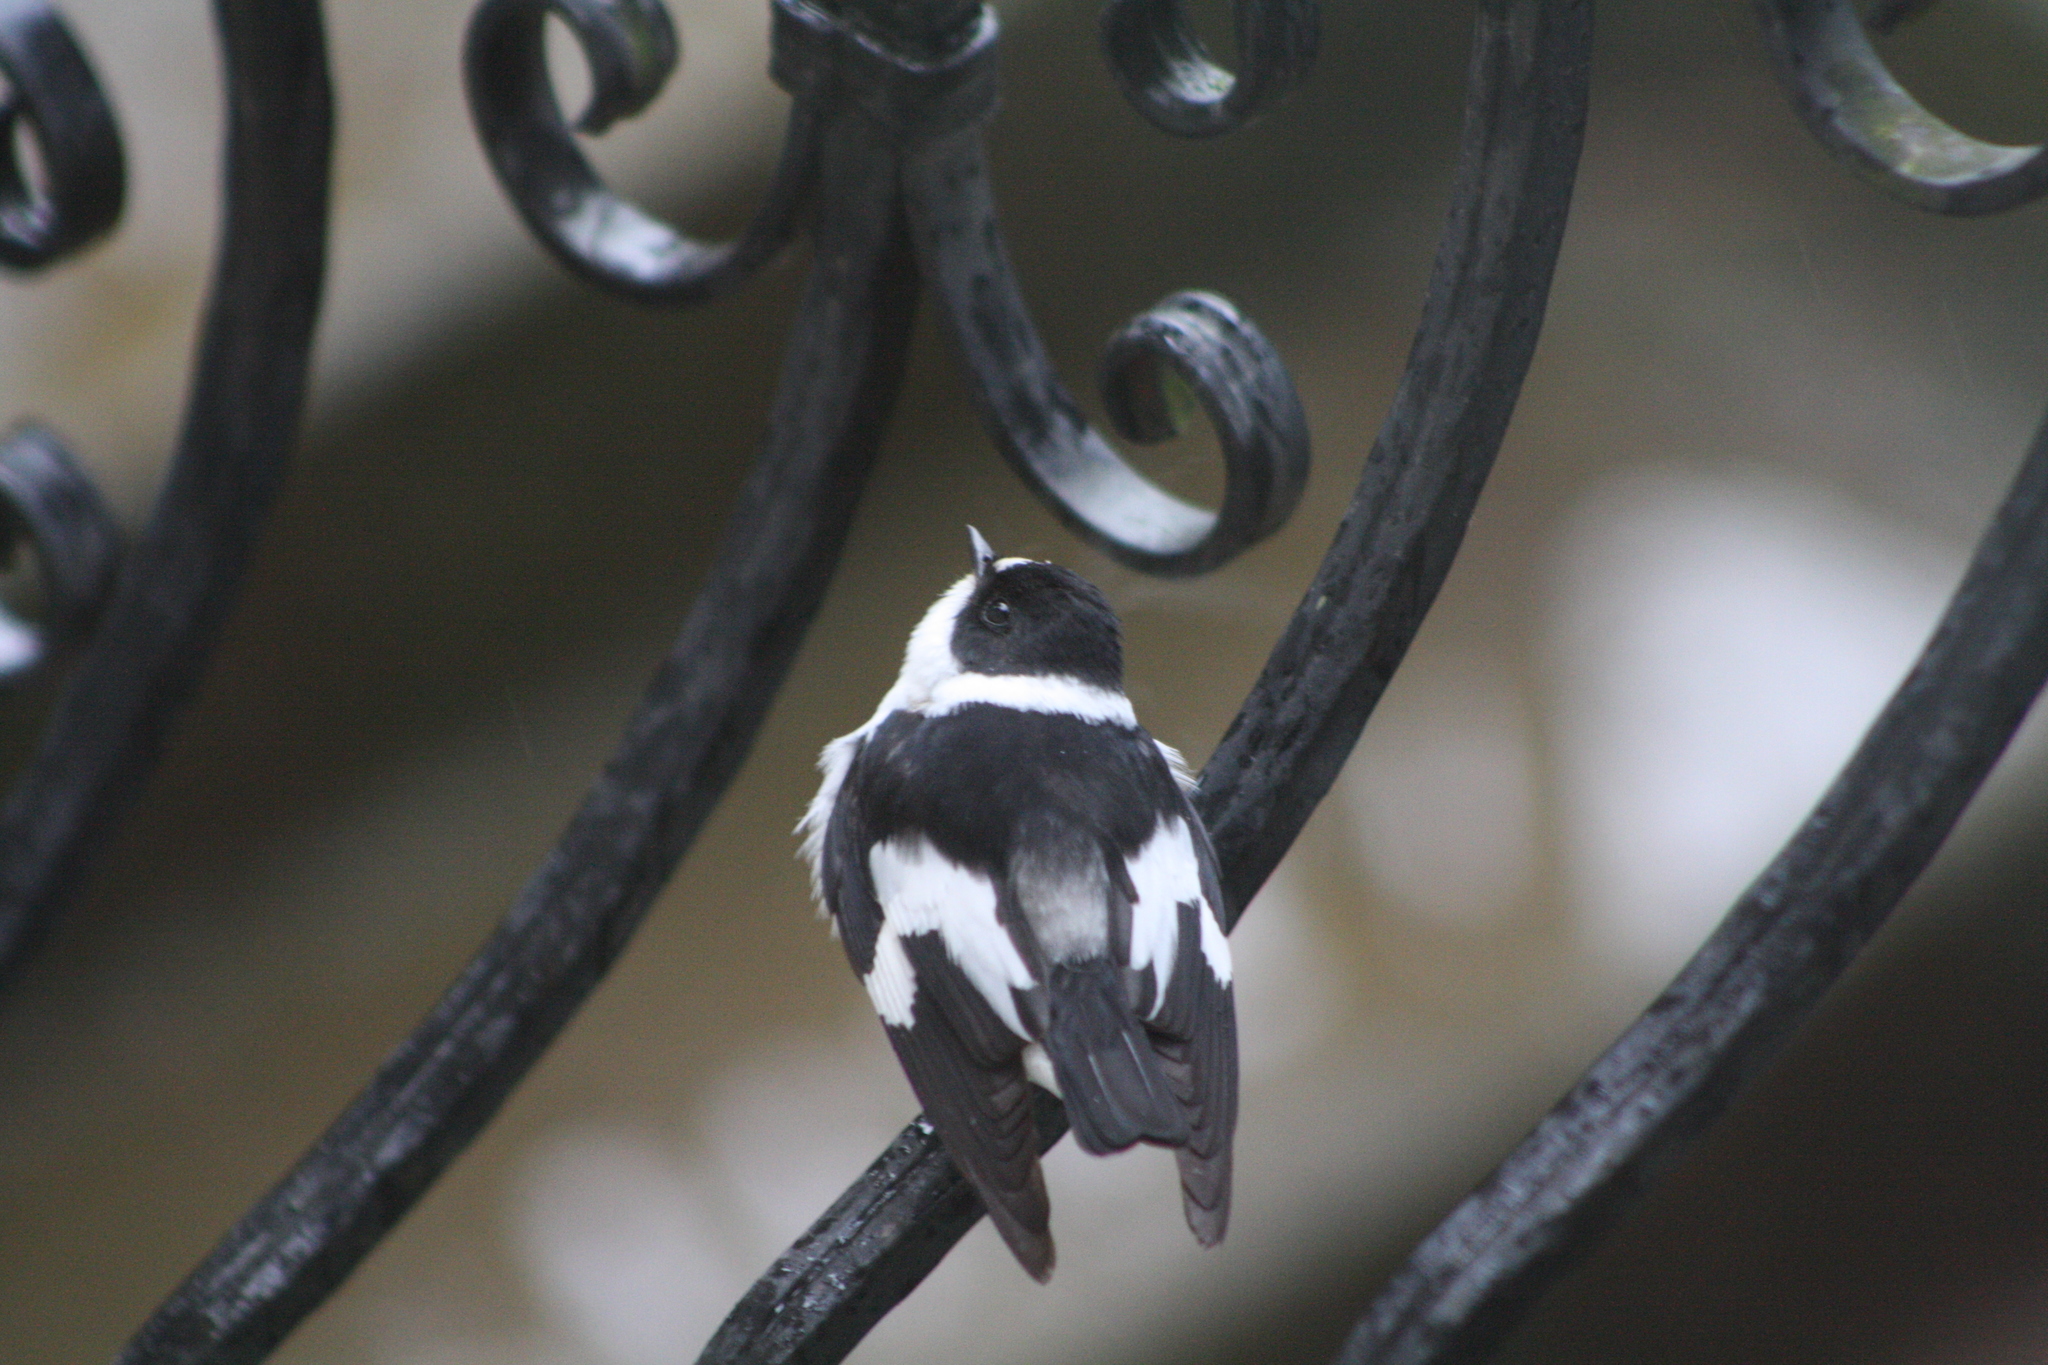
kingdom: Animalia
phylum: Chordata
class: Aves
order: Passeriformes
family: Muscicapidae
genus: Ficedula
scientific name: Ficedula albicollis
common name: Collared flycatcher
